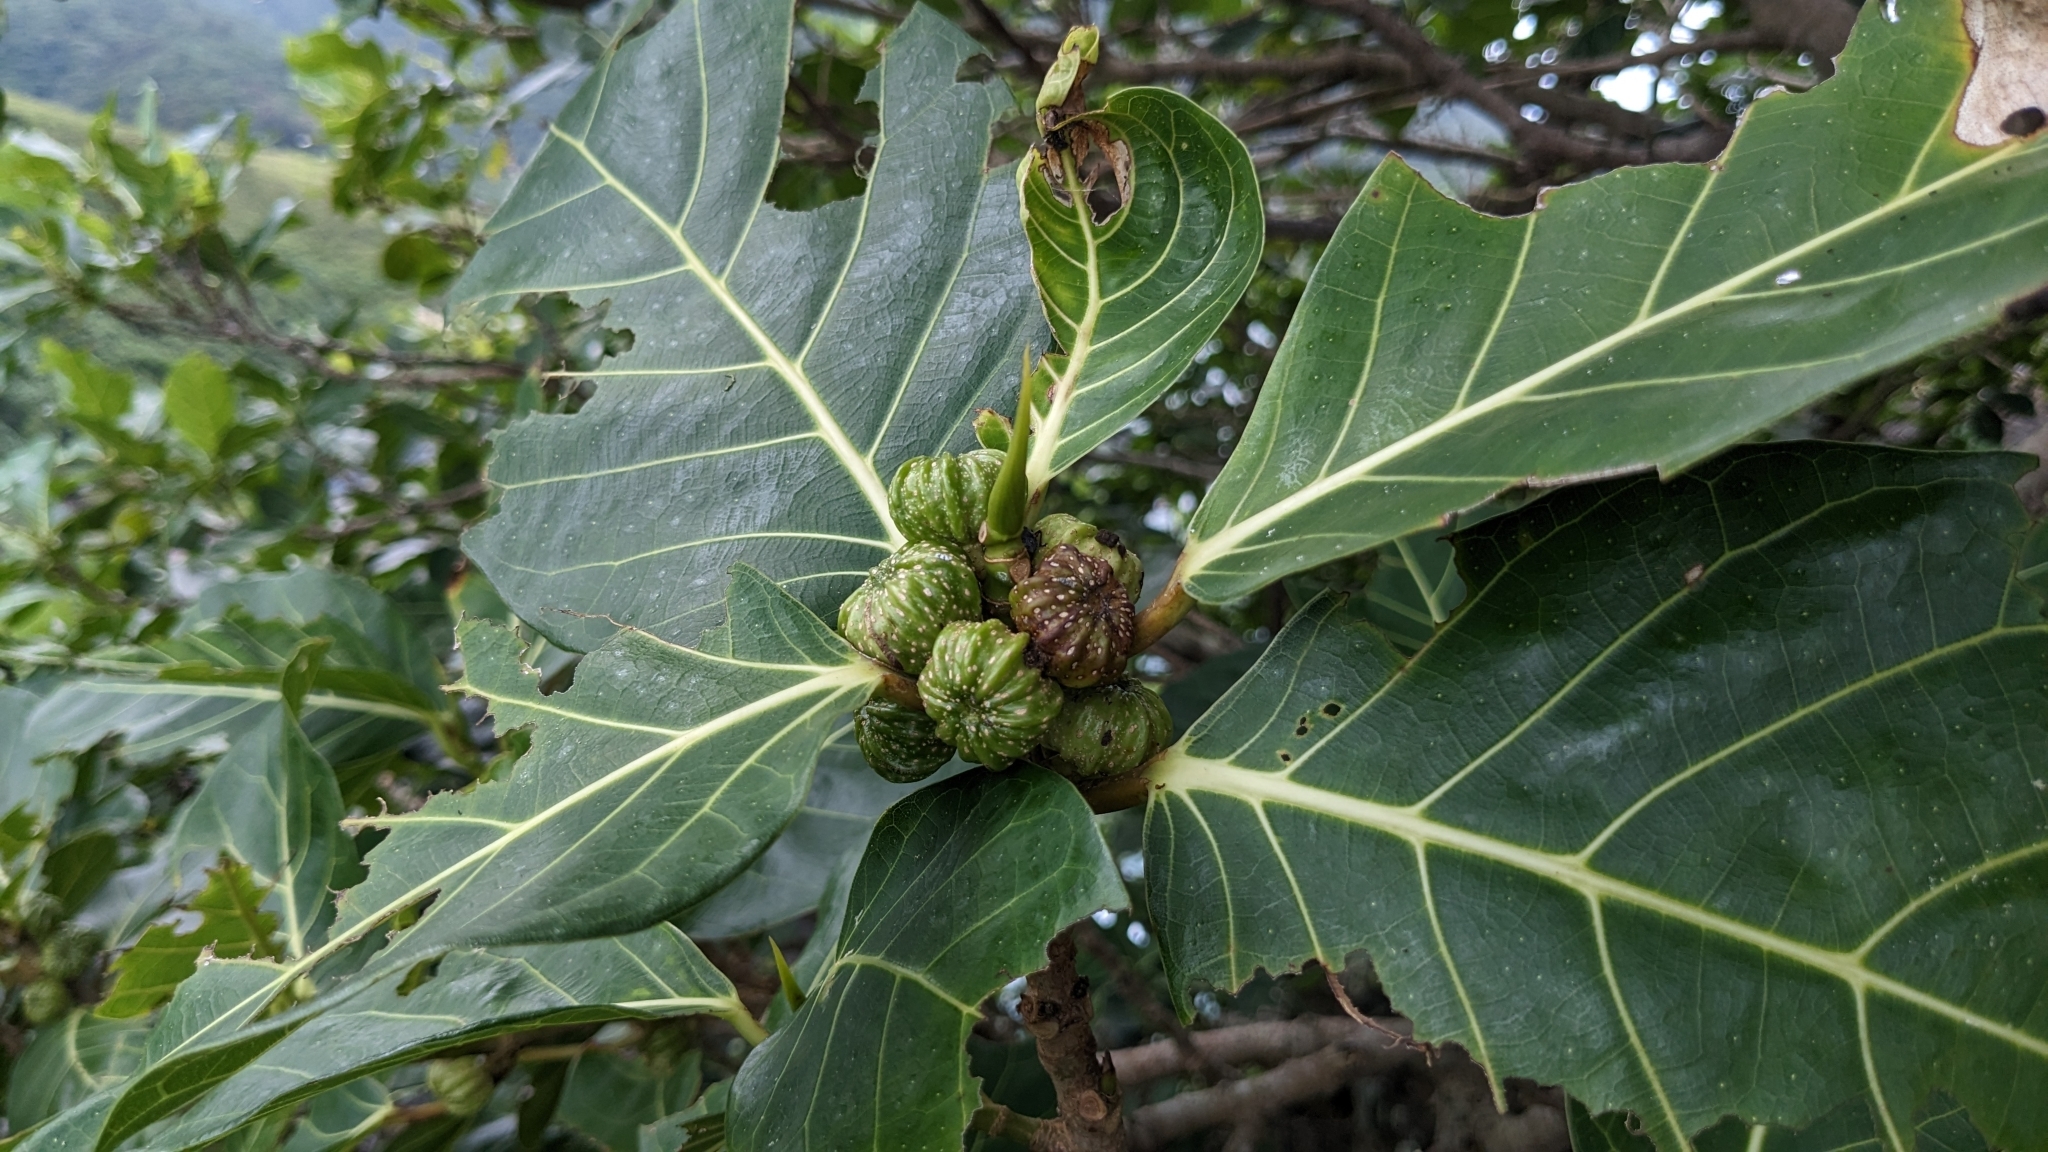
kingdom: Plantae
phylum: Tracheophyta
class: Magnoliopsida
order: Rosales
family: Moraceae
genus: Ficus
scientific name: Ficus septica
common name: Septic fig
